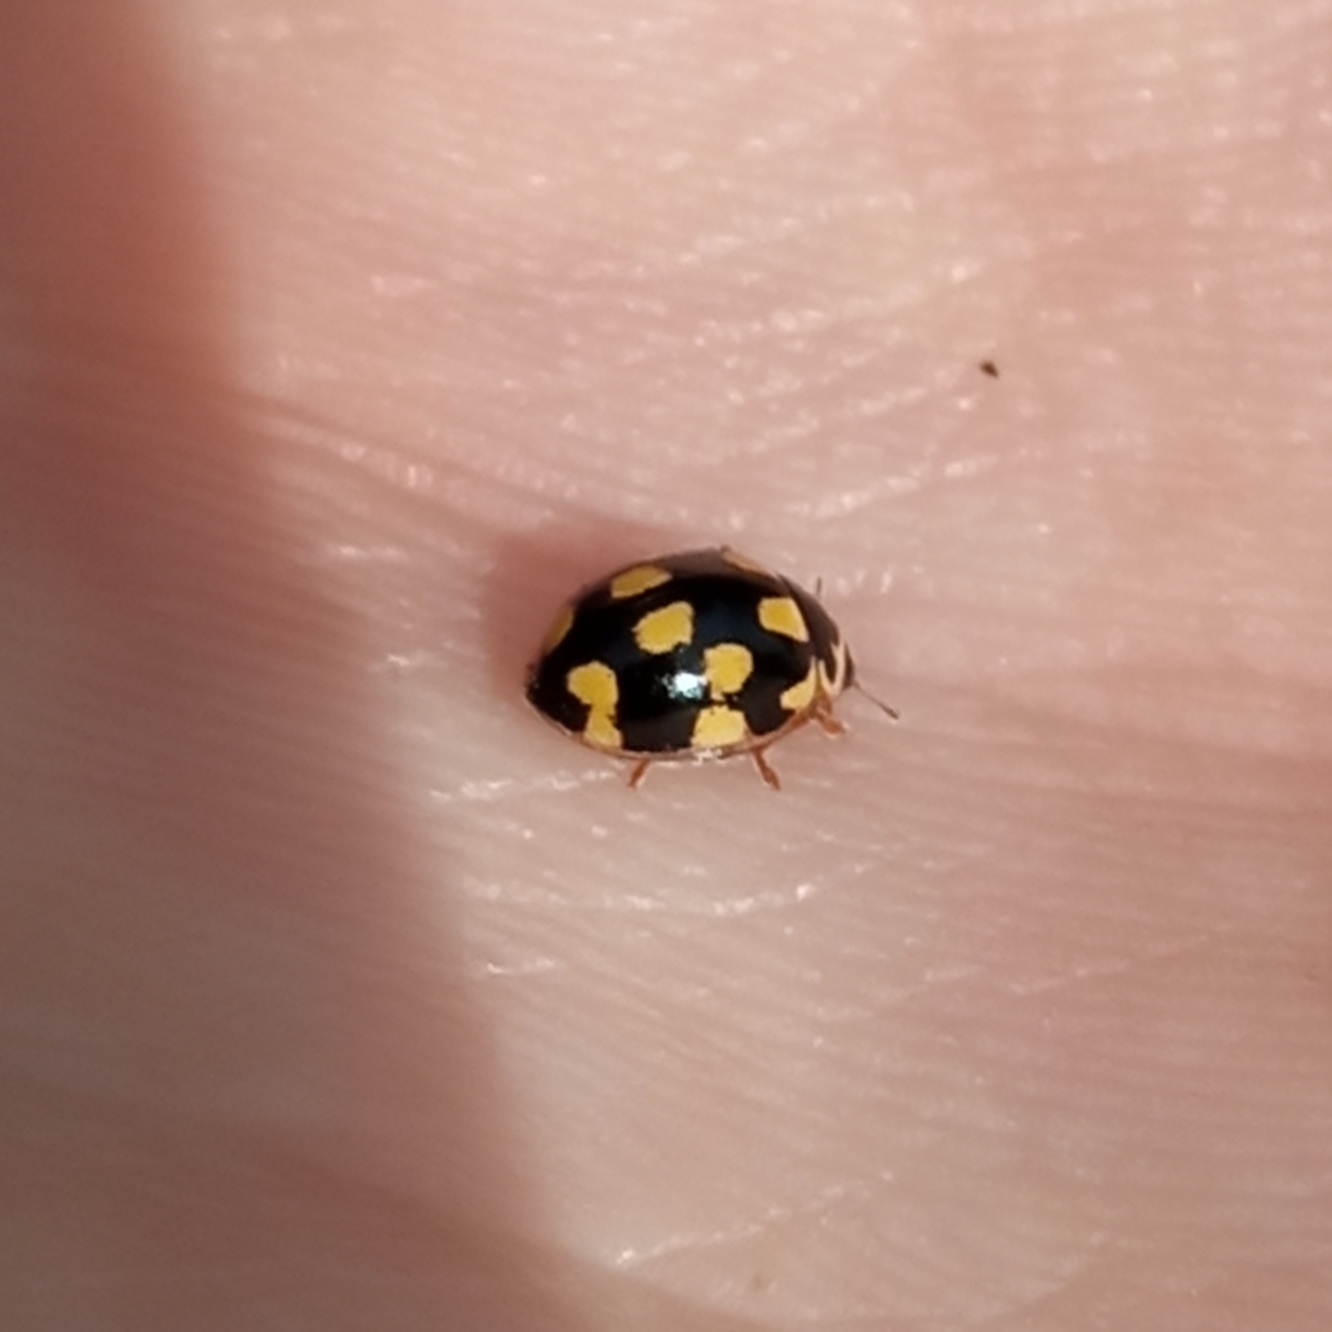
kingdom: Animalia
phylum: Arthropoda
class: Insecta
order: Coleoptera
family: Coccinellidae
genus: Propylaea
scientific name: Propylaea quatuordecimpunctata
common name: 14-spotted ladybird beetle
